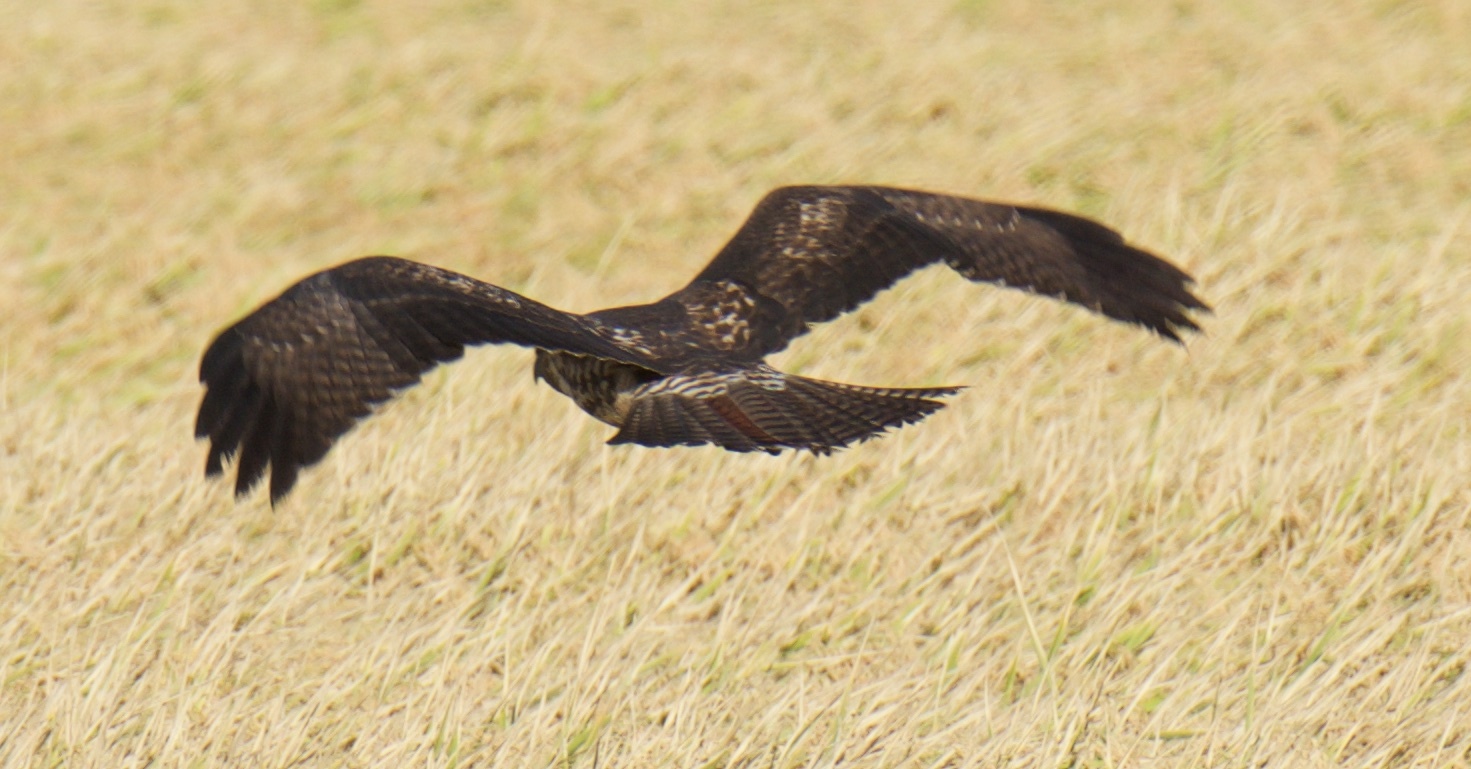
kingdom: Animalia
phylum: Chordata
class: Aves
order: Accipitriformes
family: Accipitridae
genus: Buteo
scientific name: Buteo jamaicensis
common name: Red-tailed hawk
